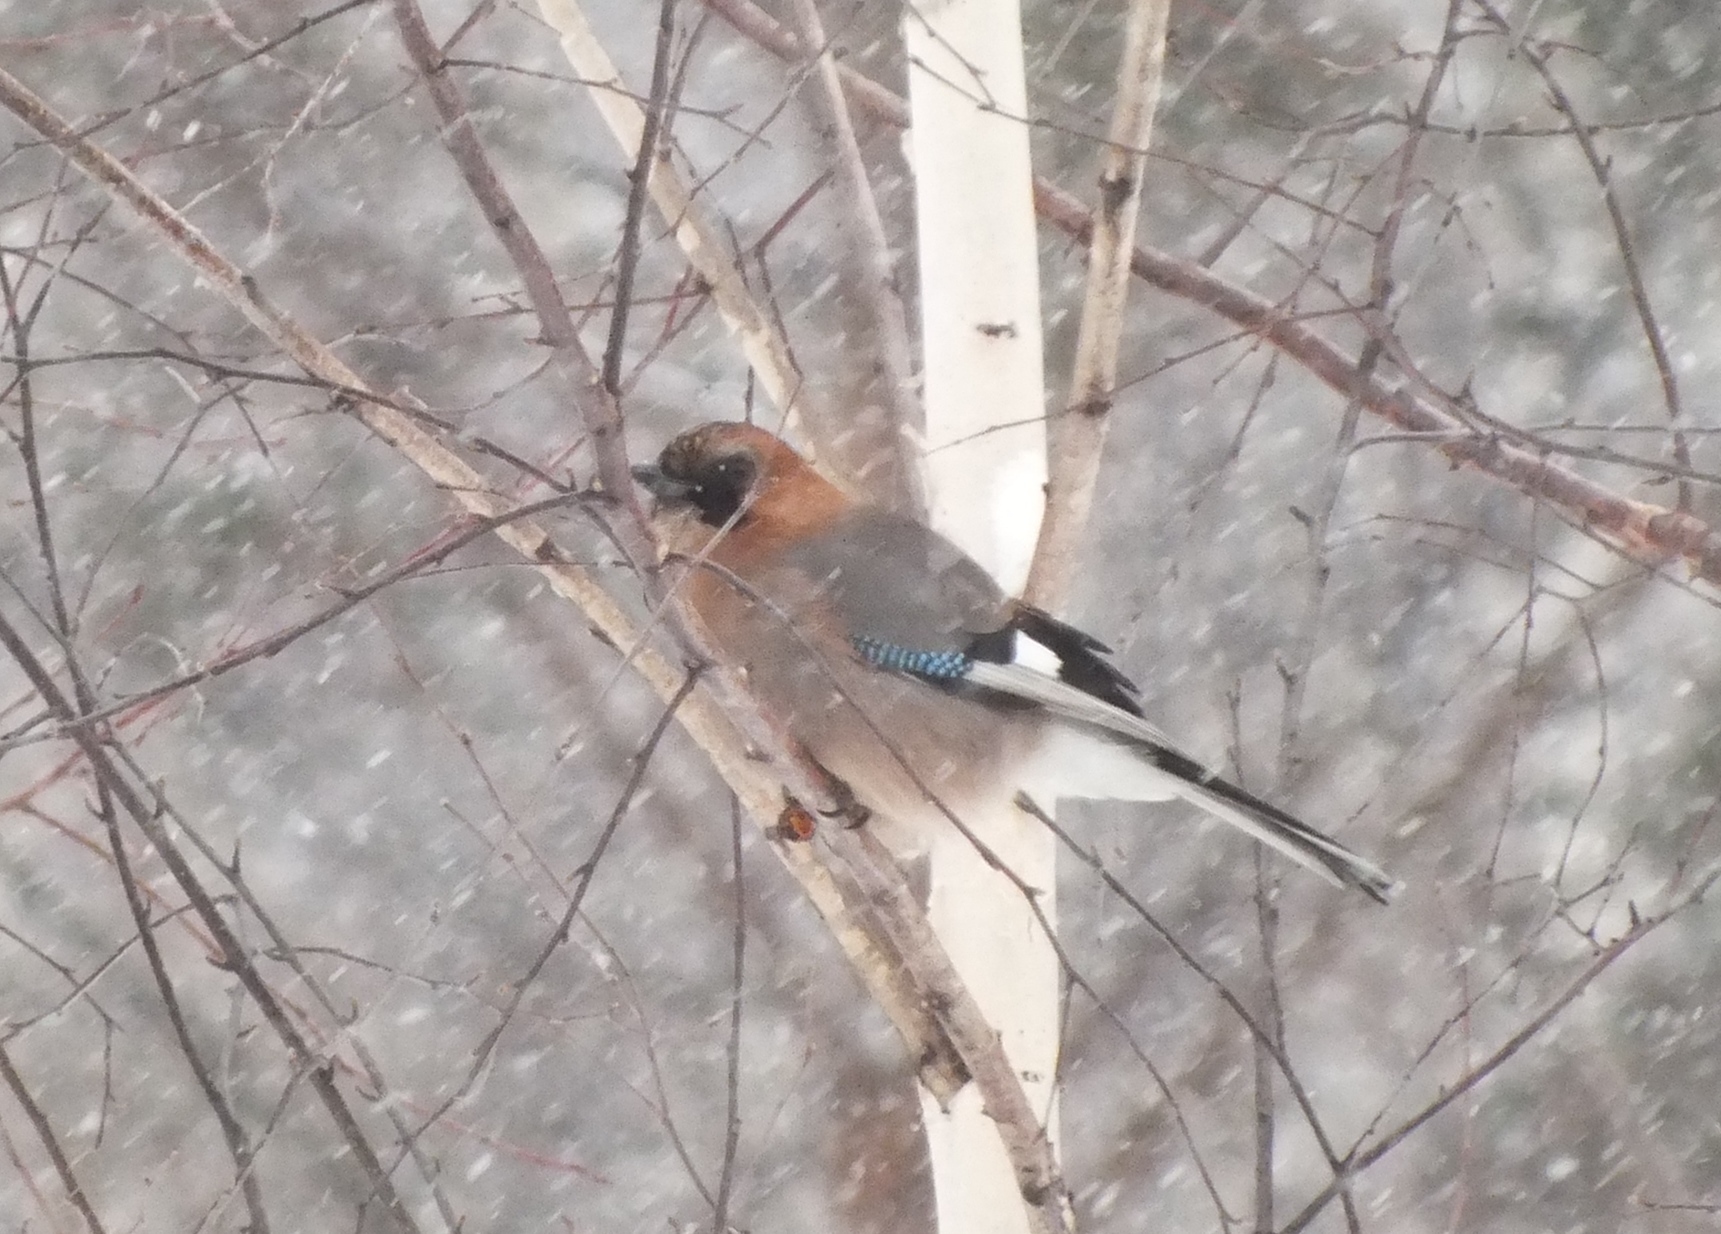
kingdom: Animalia
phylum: Chordata
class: Aves
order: Passeriformes
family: Corvidae
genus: Garrulus
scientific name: Garrulus glandarius
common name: Eurasian jay
